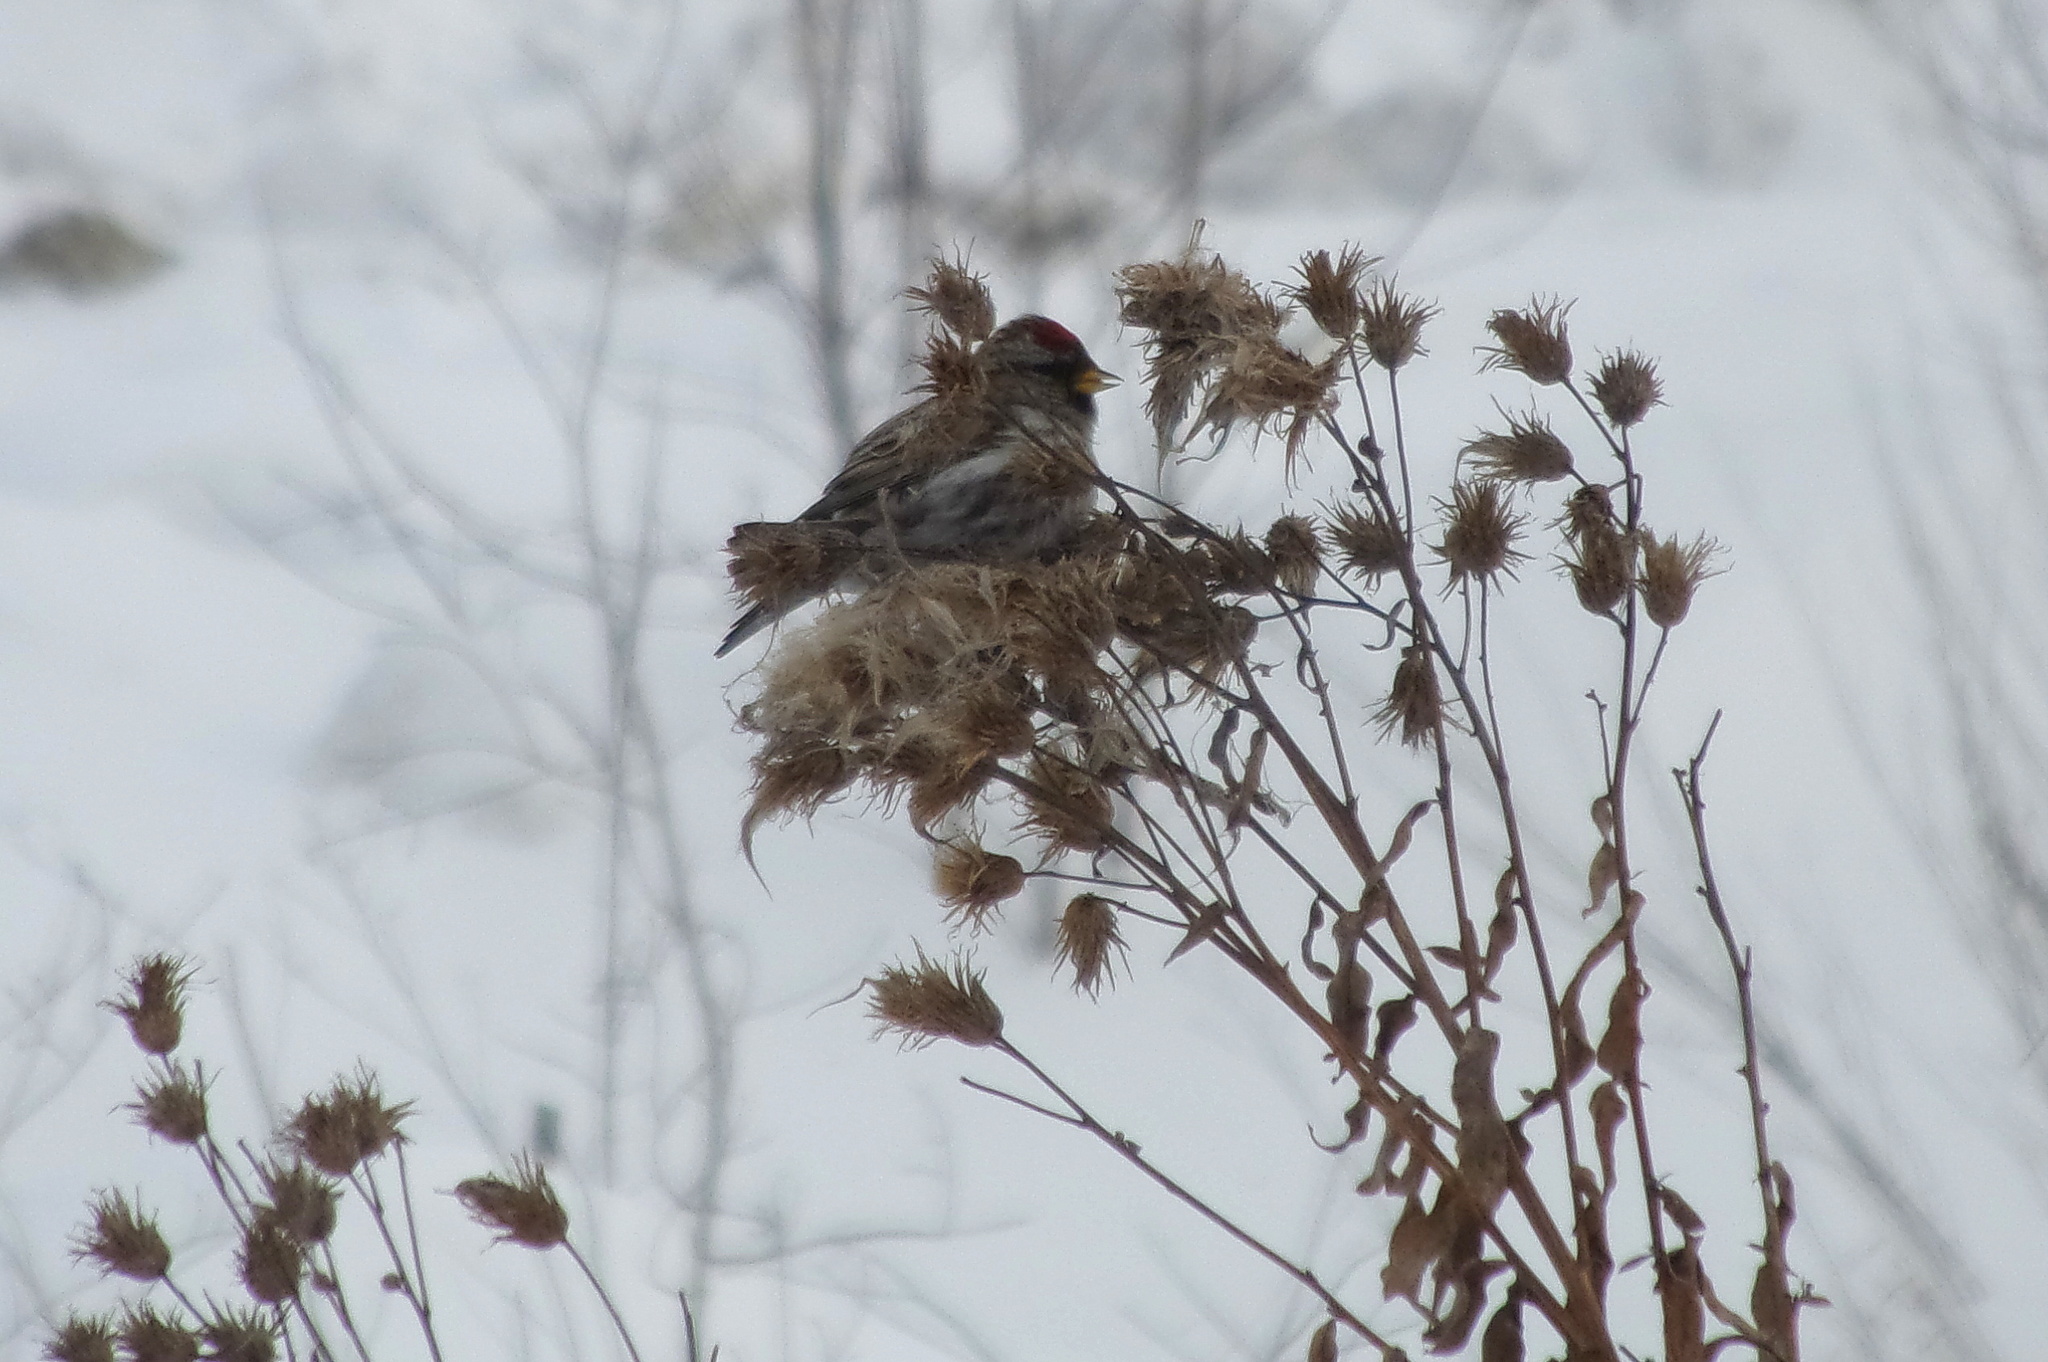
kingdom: Animalia
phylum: Chordata
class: Aves
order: Passeriformes
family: Fringillidae
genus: Acanthis
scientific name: Acanthis flammea
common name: Common redpoll
